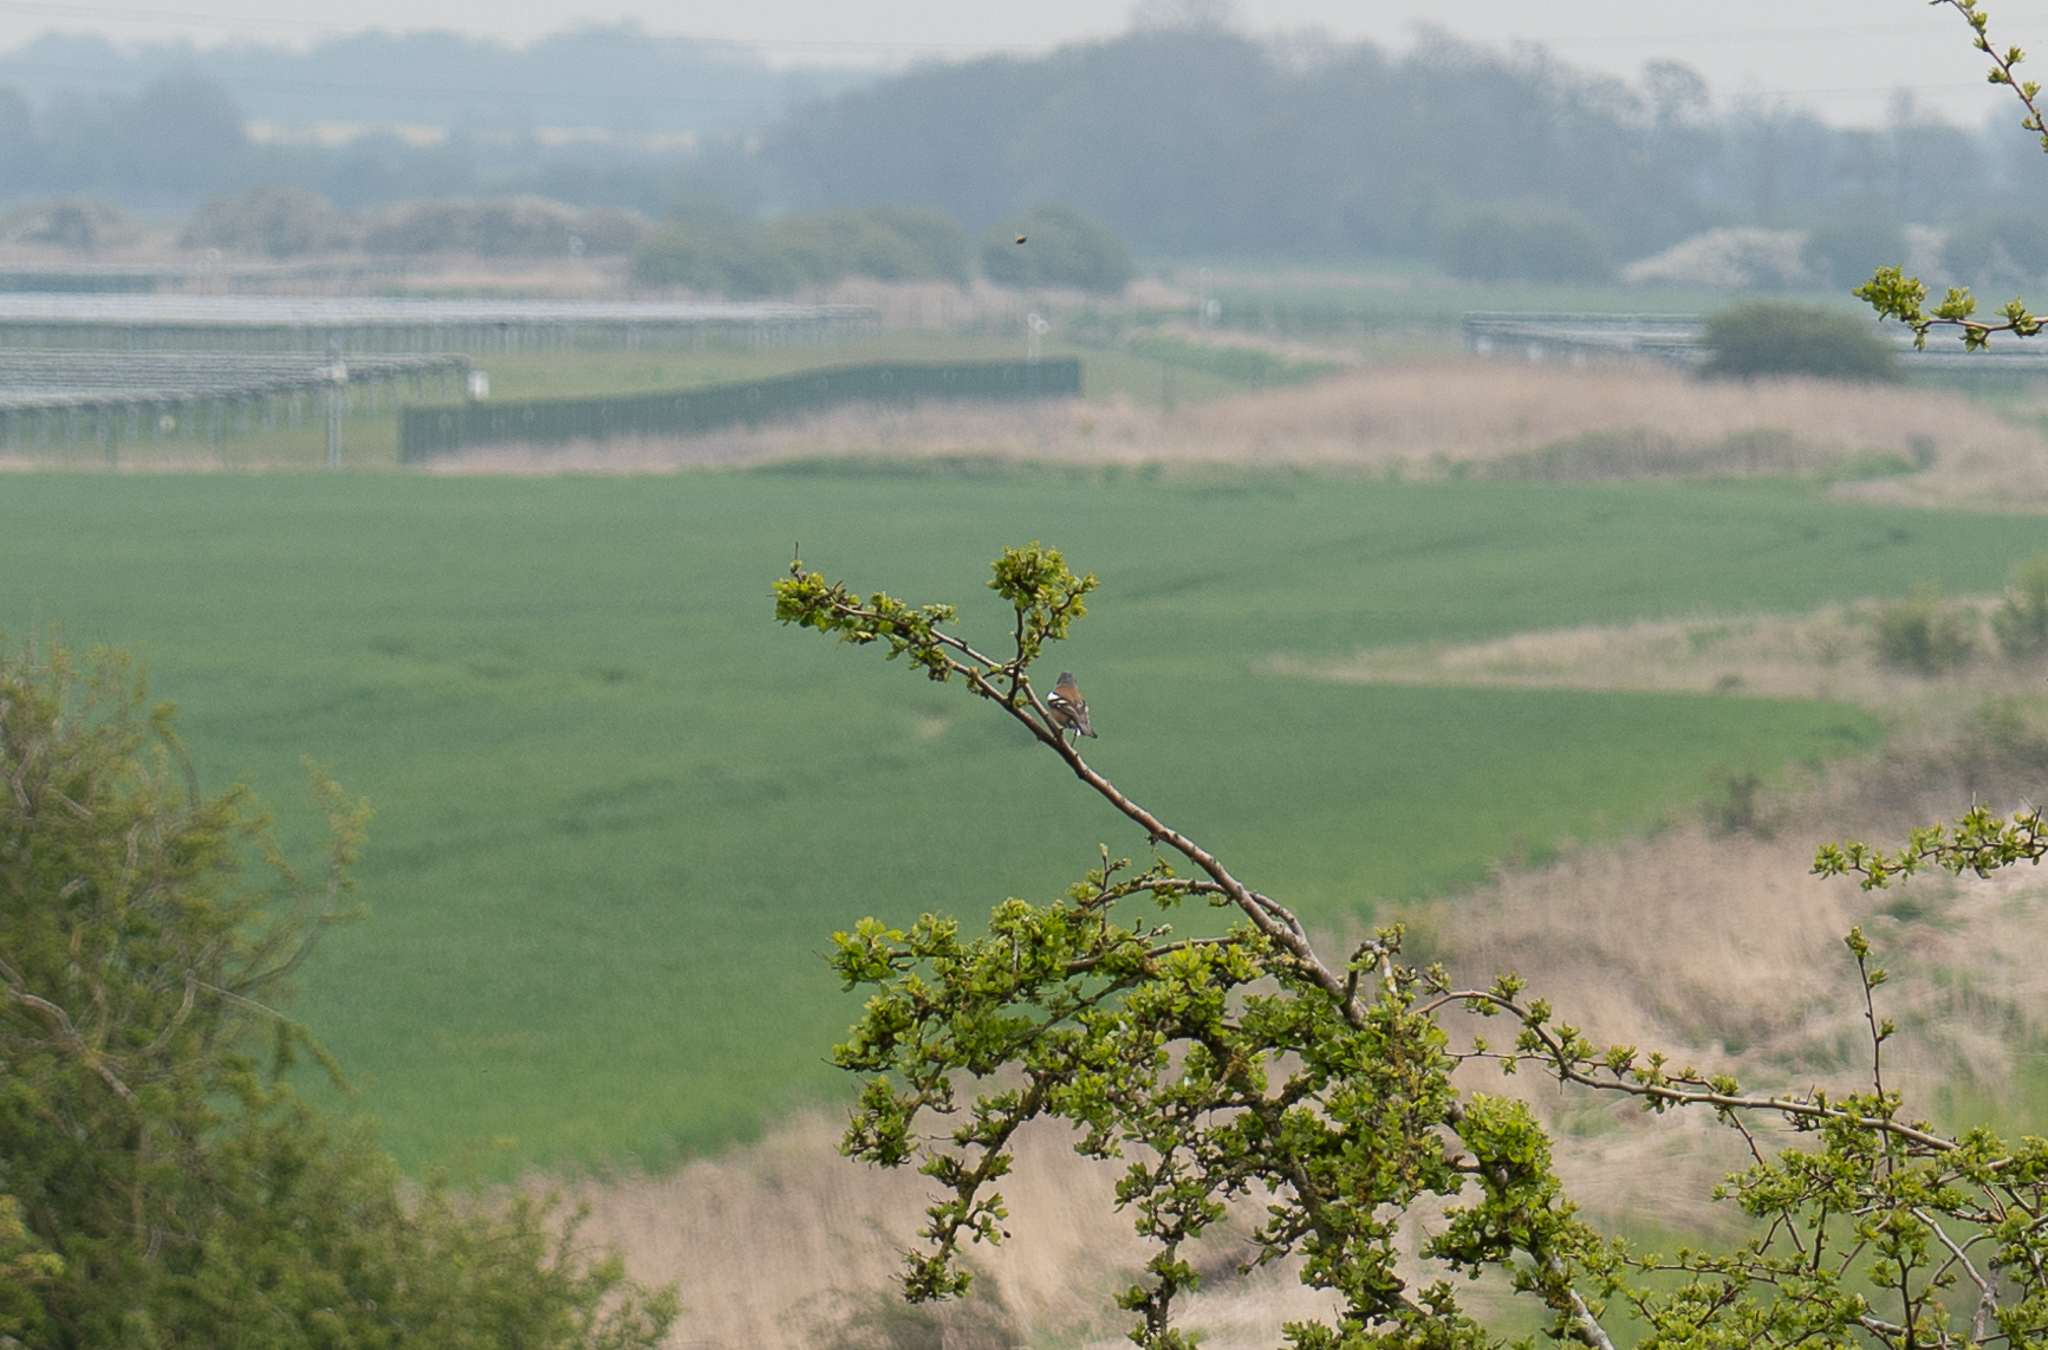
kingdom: Animalia
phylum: Chordata
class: Aves
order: Passeriformes
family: Fringillidae
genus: Fringilla
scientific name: Fringilla coelebs
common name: Common chaffinch
